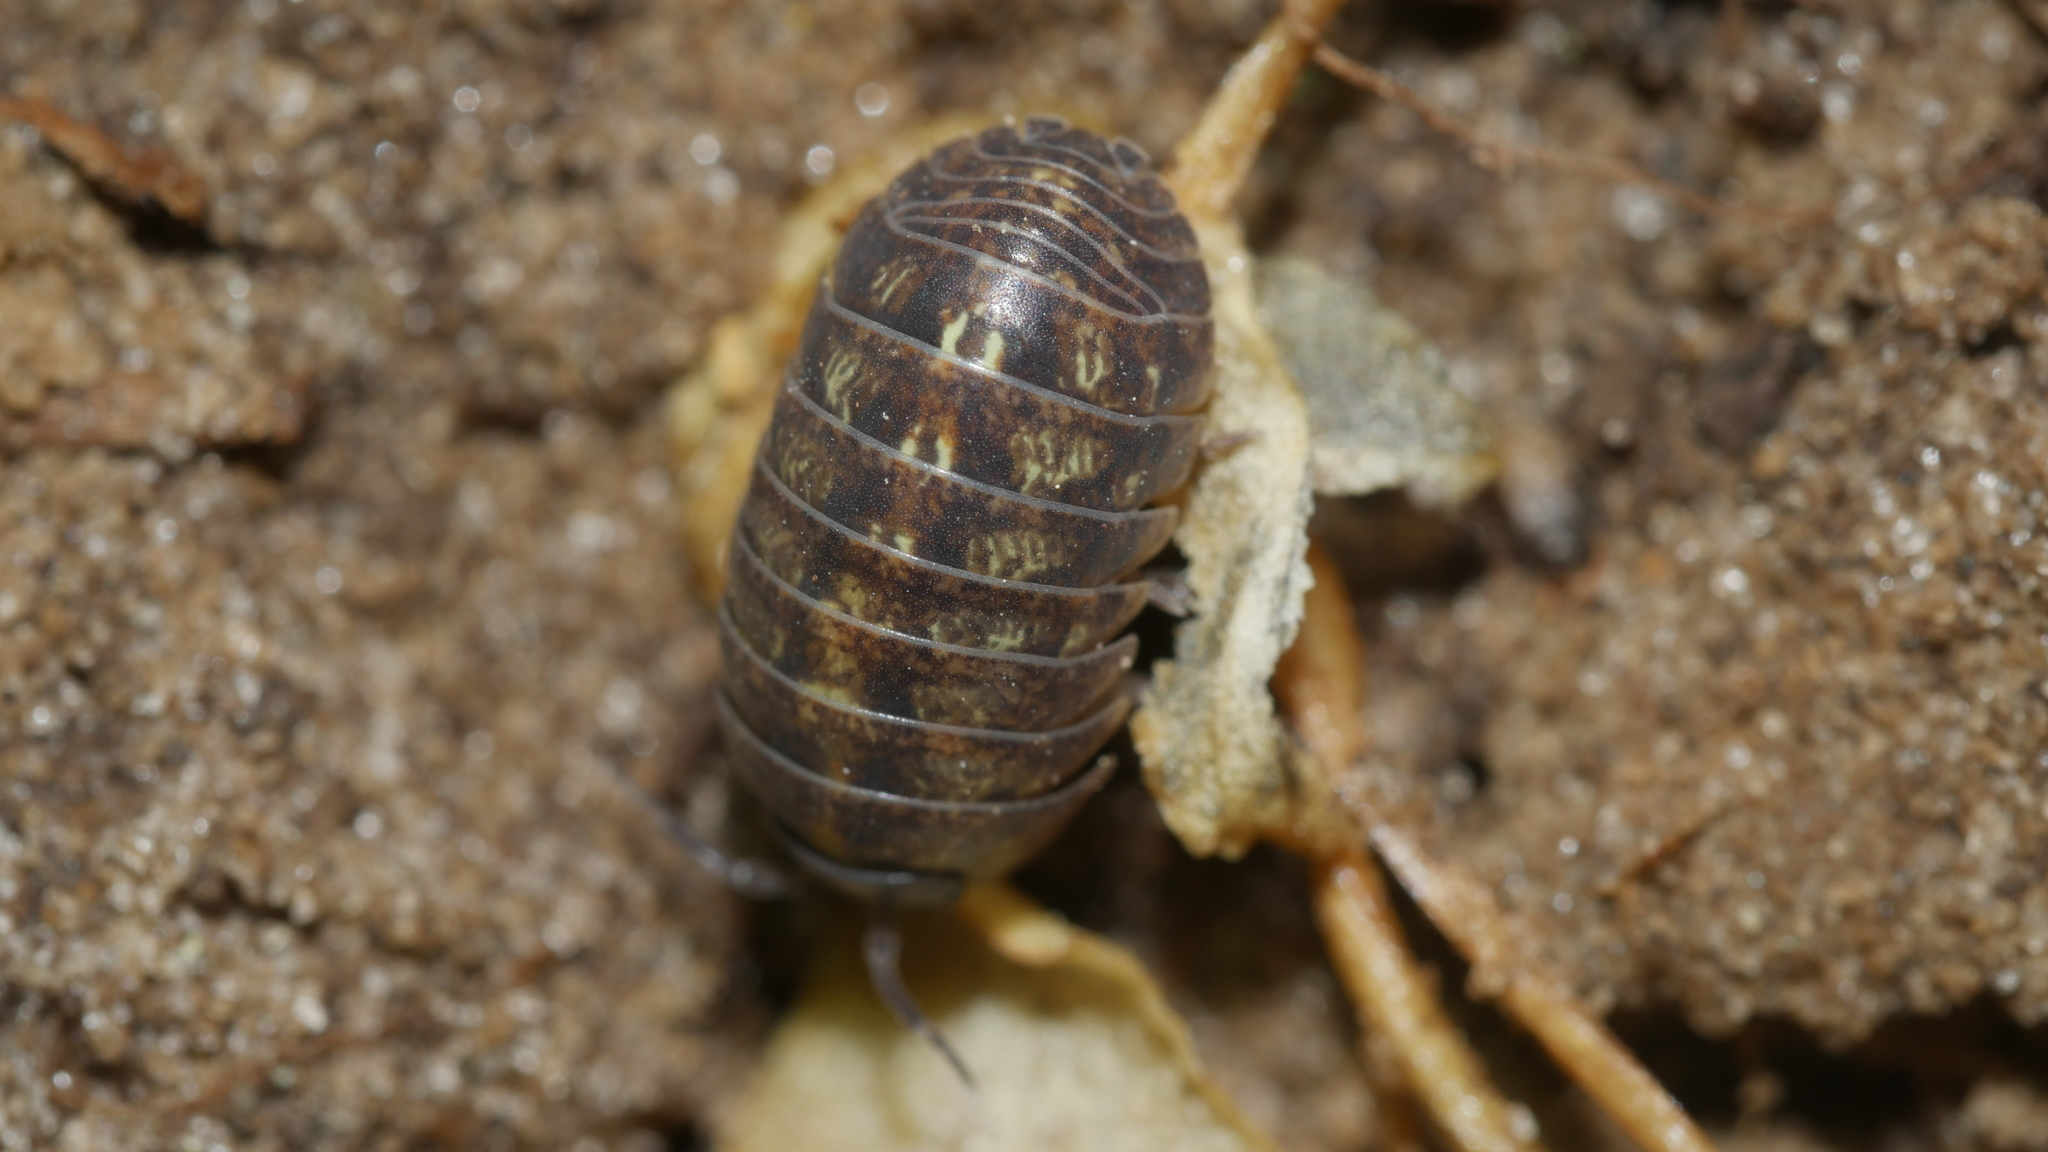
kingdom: Animalia
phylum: Arthropoda
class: Malacostraca
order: Isopoda
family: Armadillidiidae
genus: Armadillidium
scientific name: Armadillidium vulgare
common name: Common pill woodlouse
